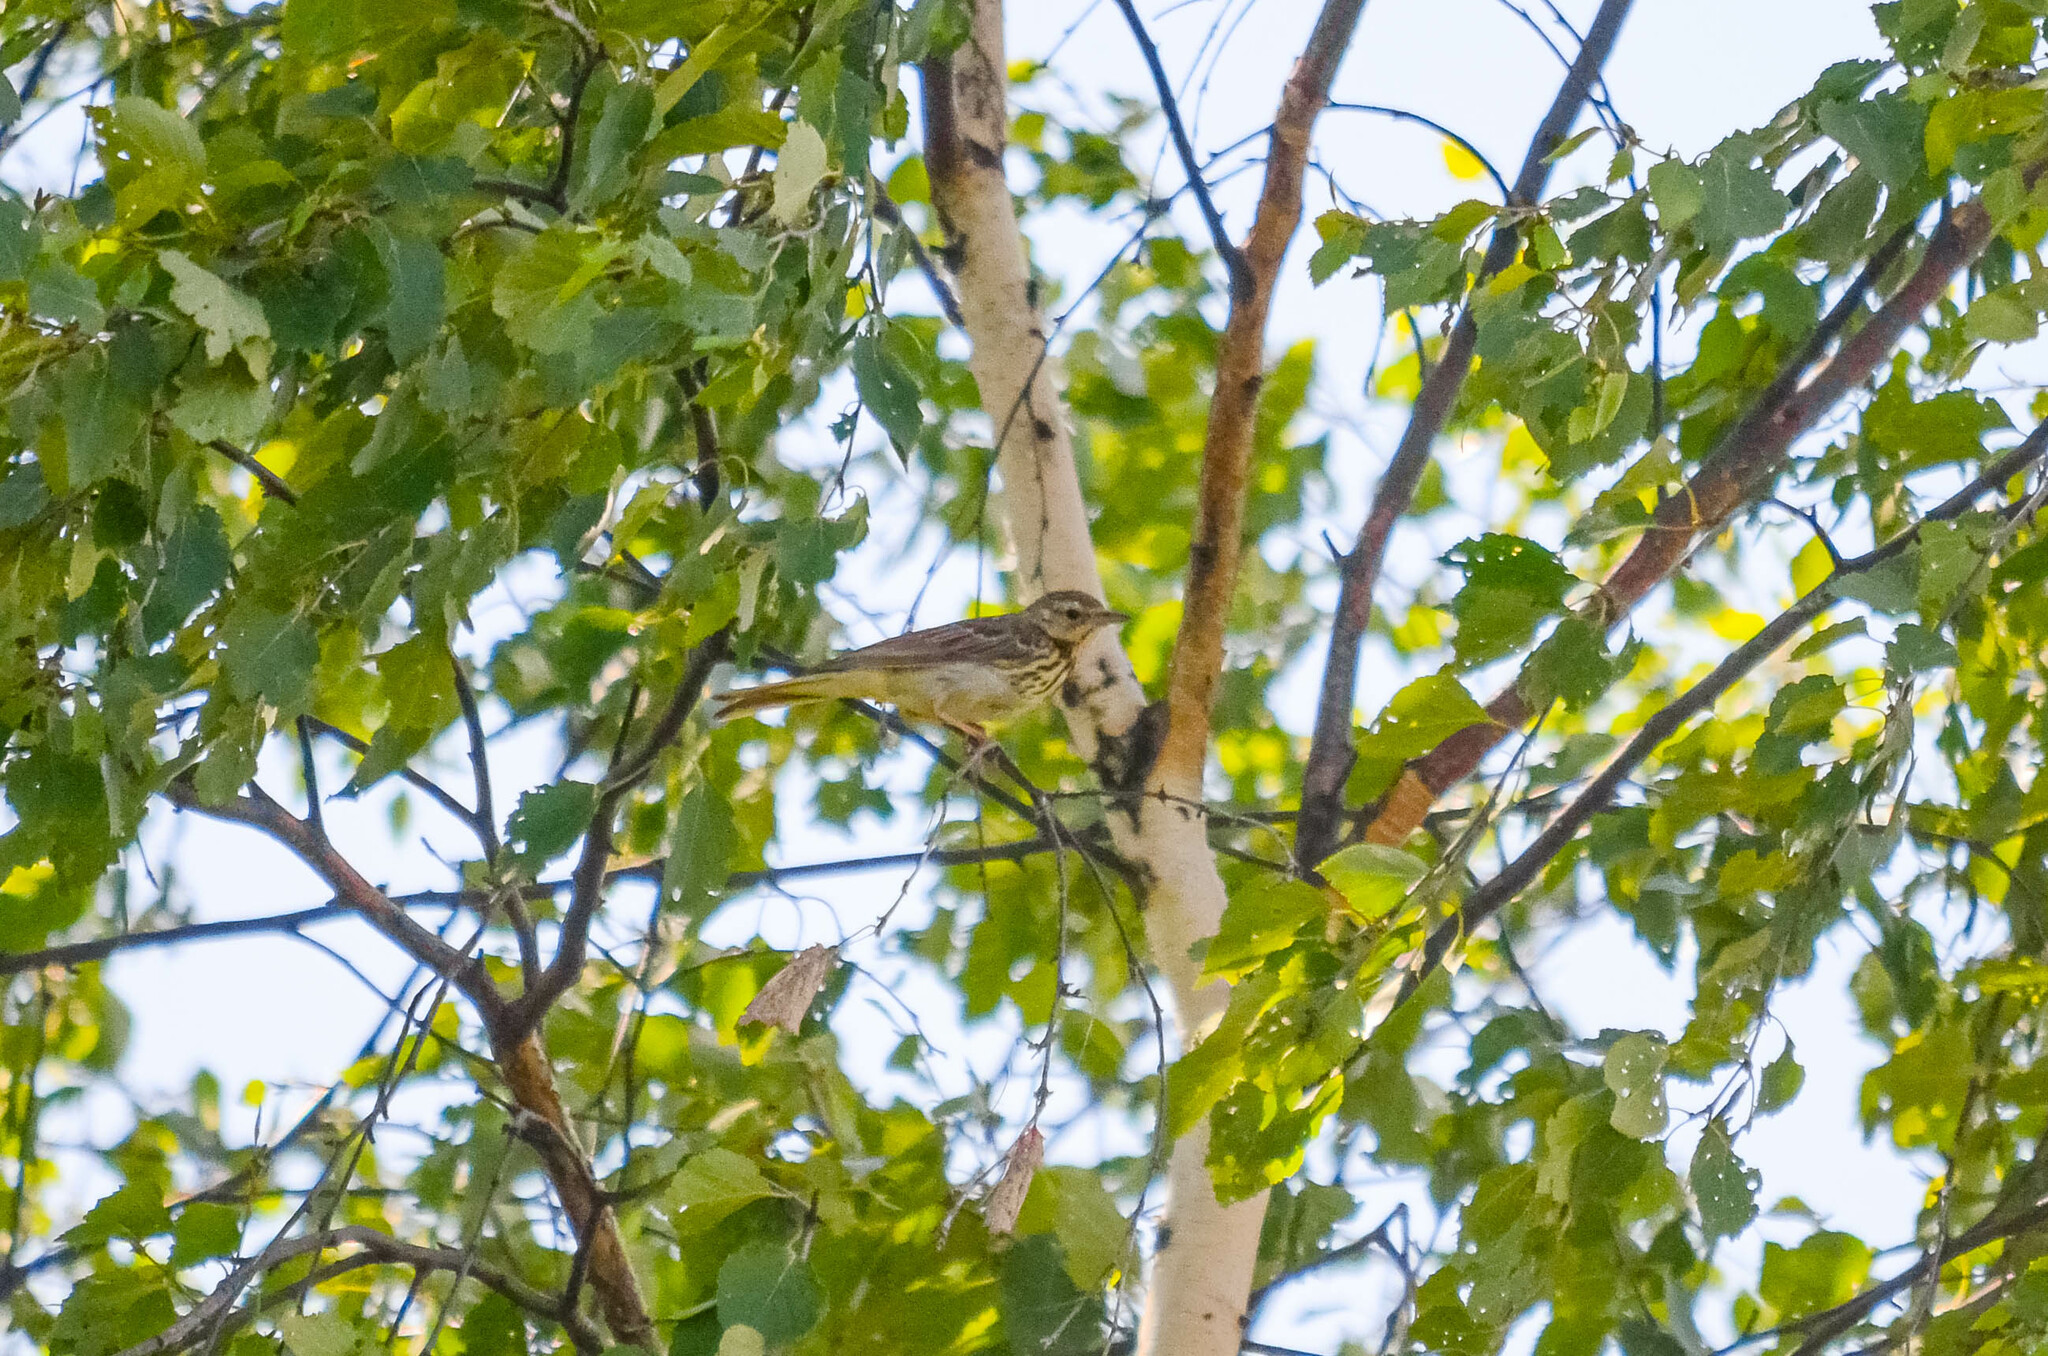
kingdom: Animalia
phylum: Chordata
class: Aves
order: Passeriformes
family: Motacillidae
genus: Anthus
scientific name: Anthus trivialis
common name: Tree pipit
